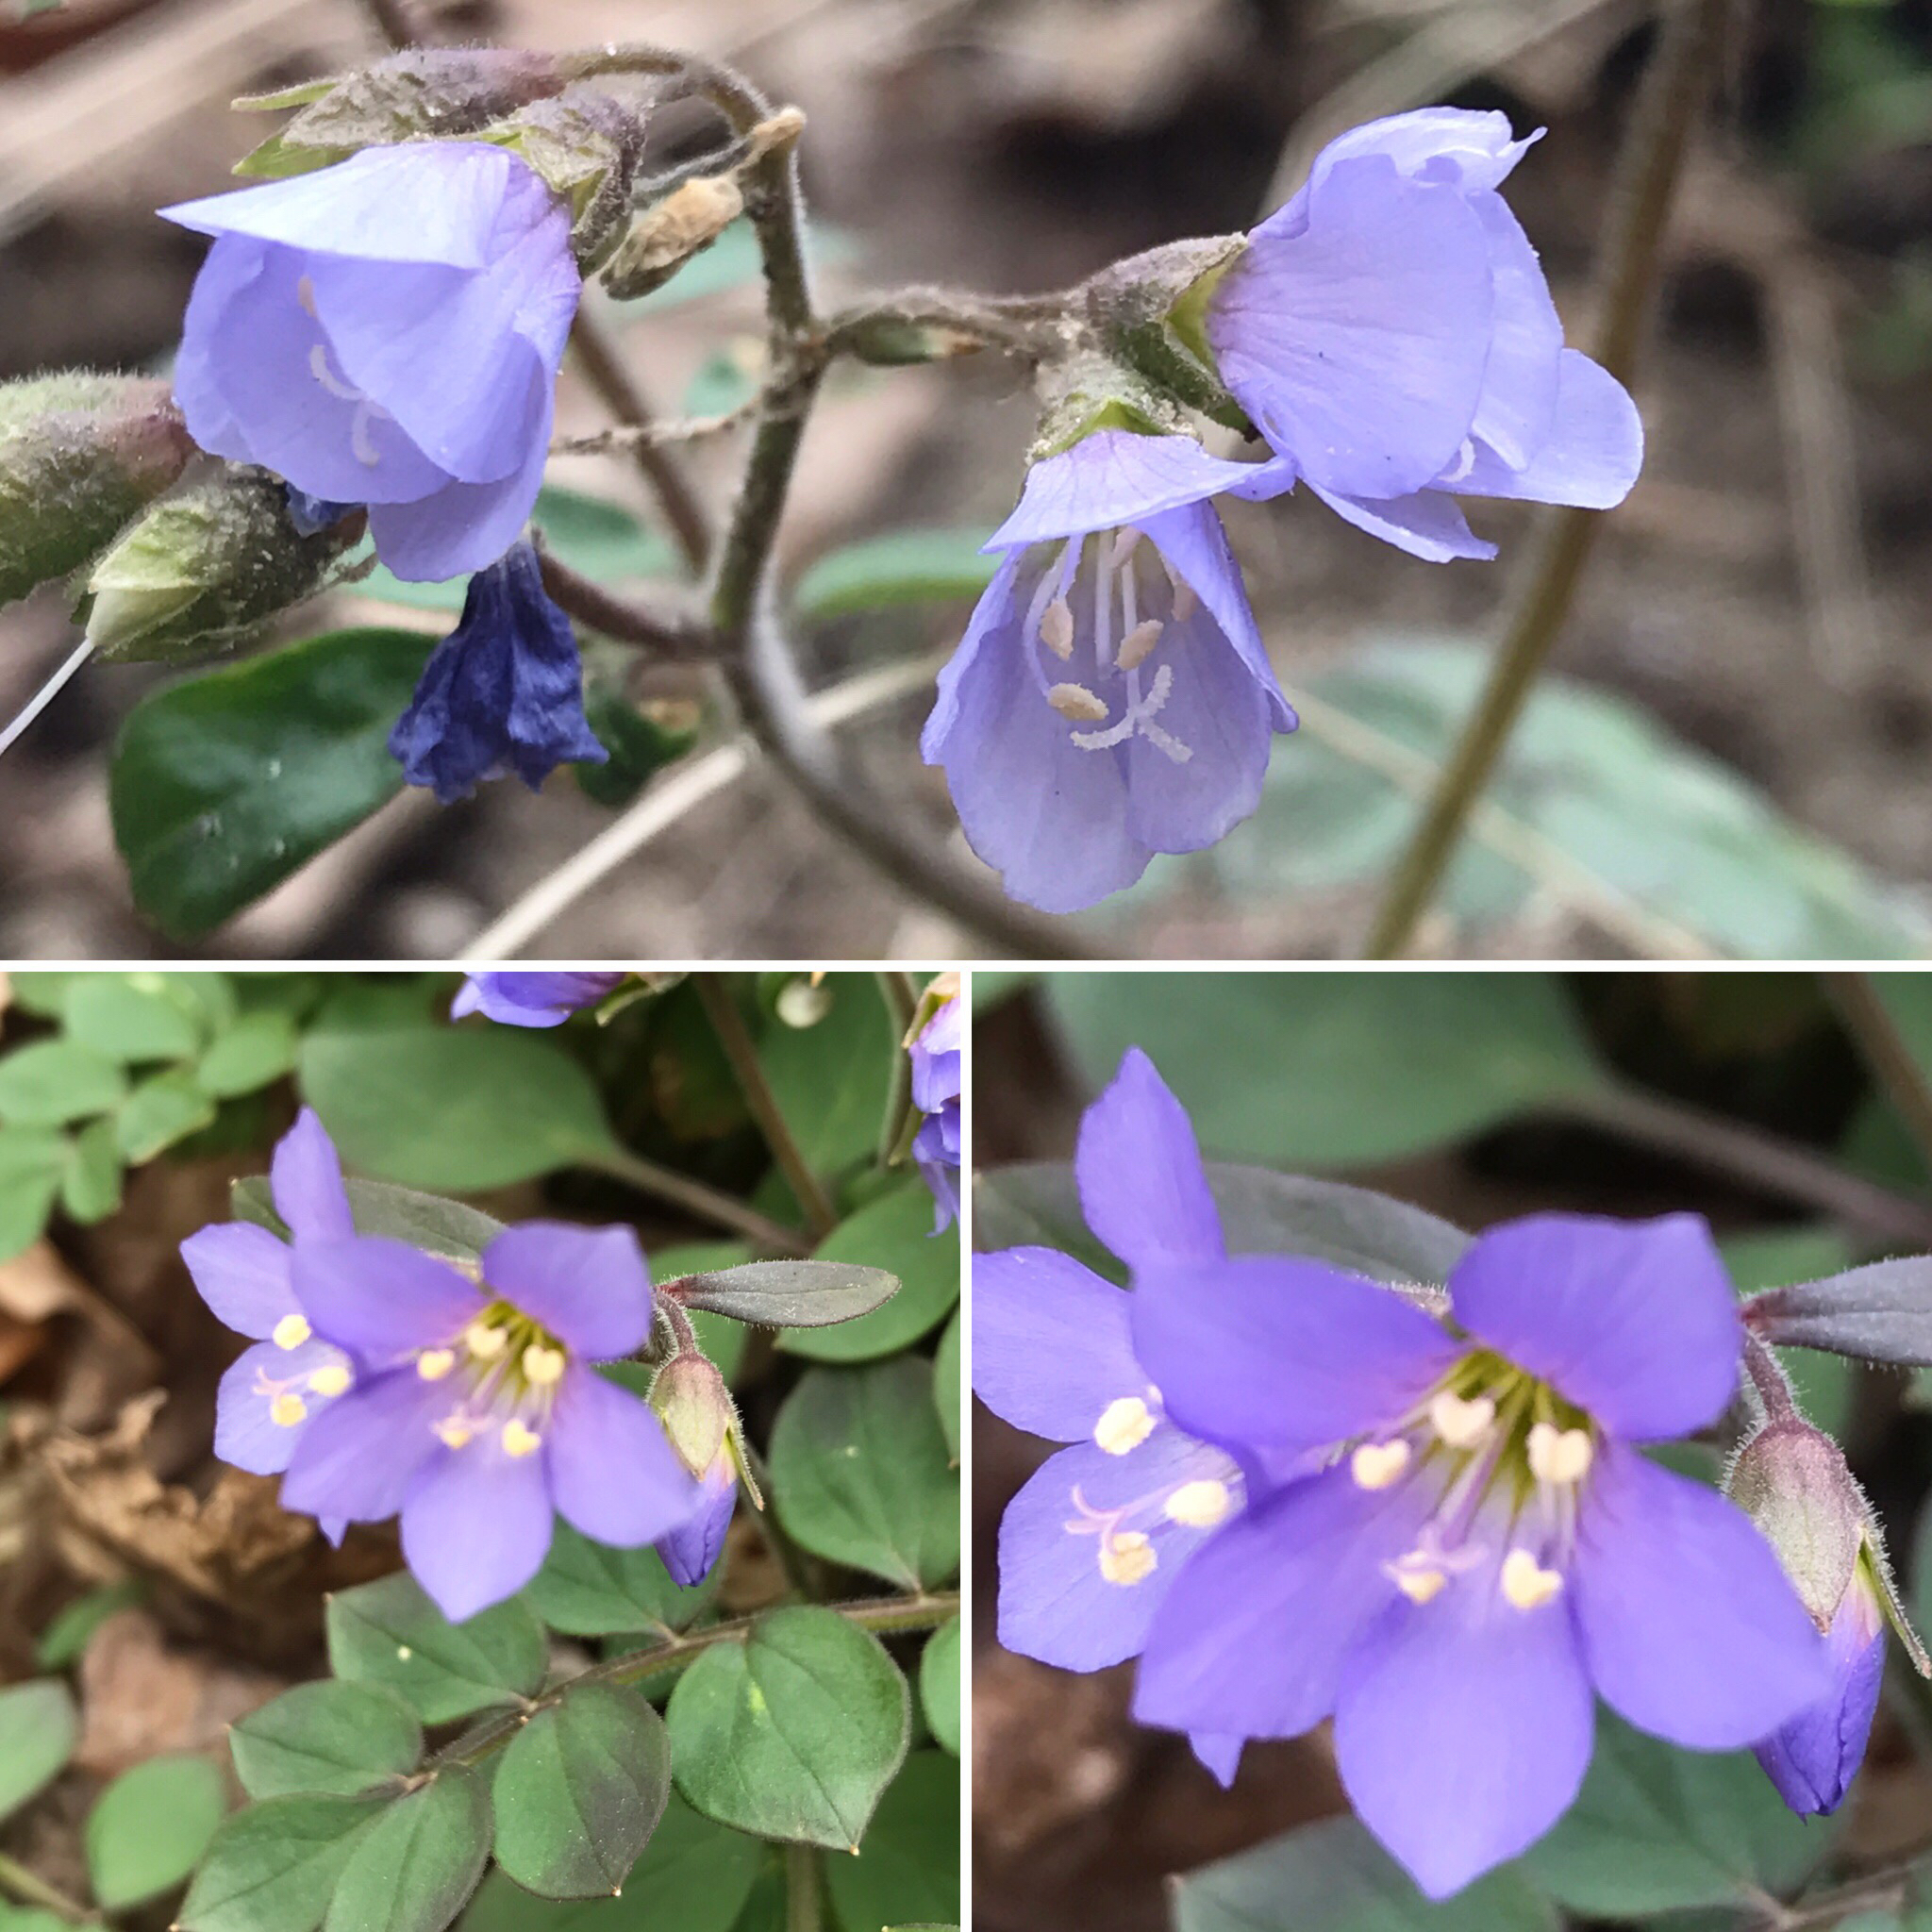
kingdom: Plantae
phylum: Tracheophyta
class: Magnoliopsida
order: Ericales
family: Polemoniaceae
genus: Polemonium
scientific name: Polemonium reptans
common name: Creeping jacob's-ladder
